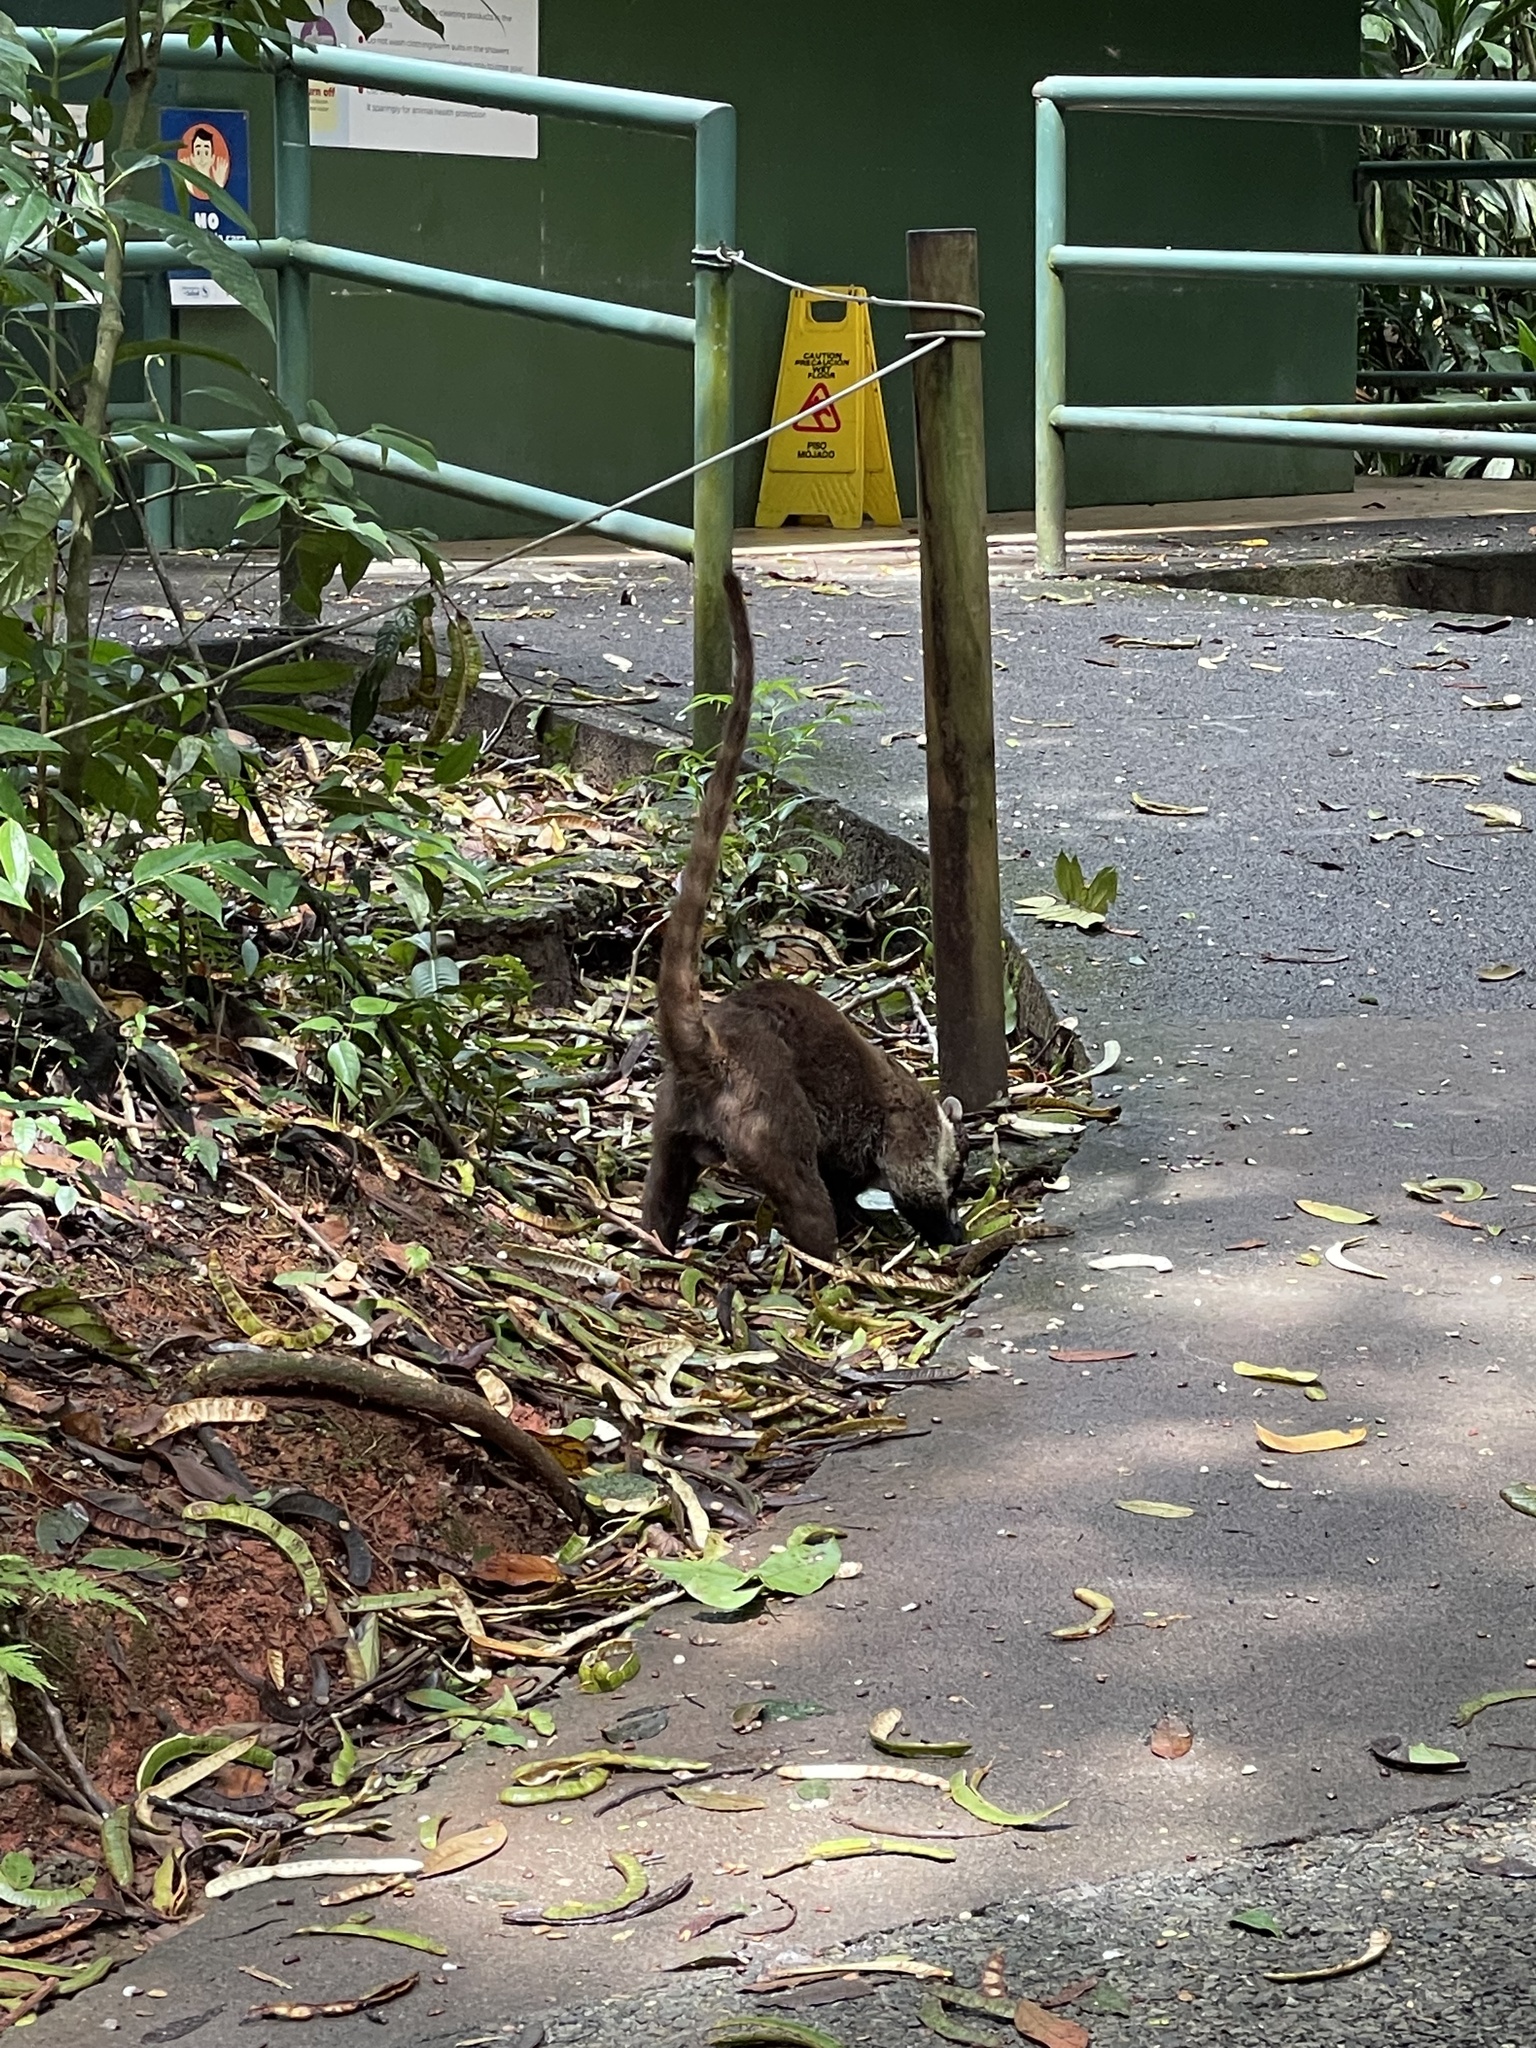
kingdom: Animalia
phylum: Chordata
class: Mammalia
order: Carnivora
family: Procyonidae
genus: Nasua
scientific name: Nasua narica
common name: White-nosed coati
